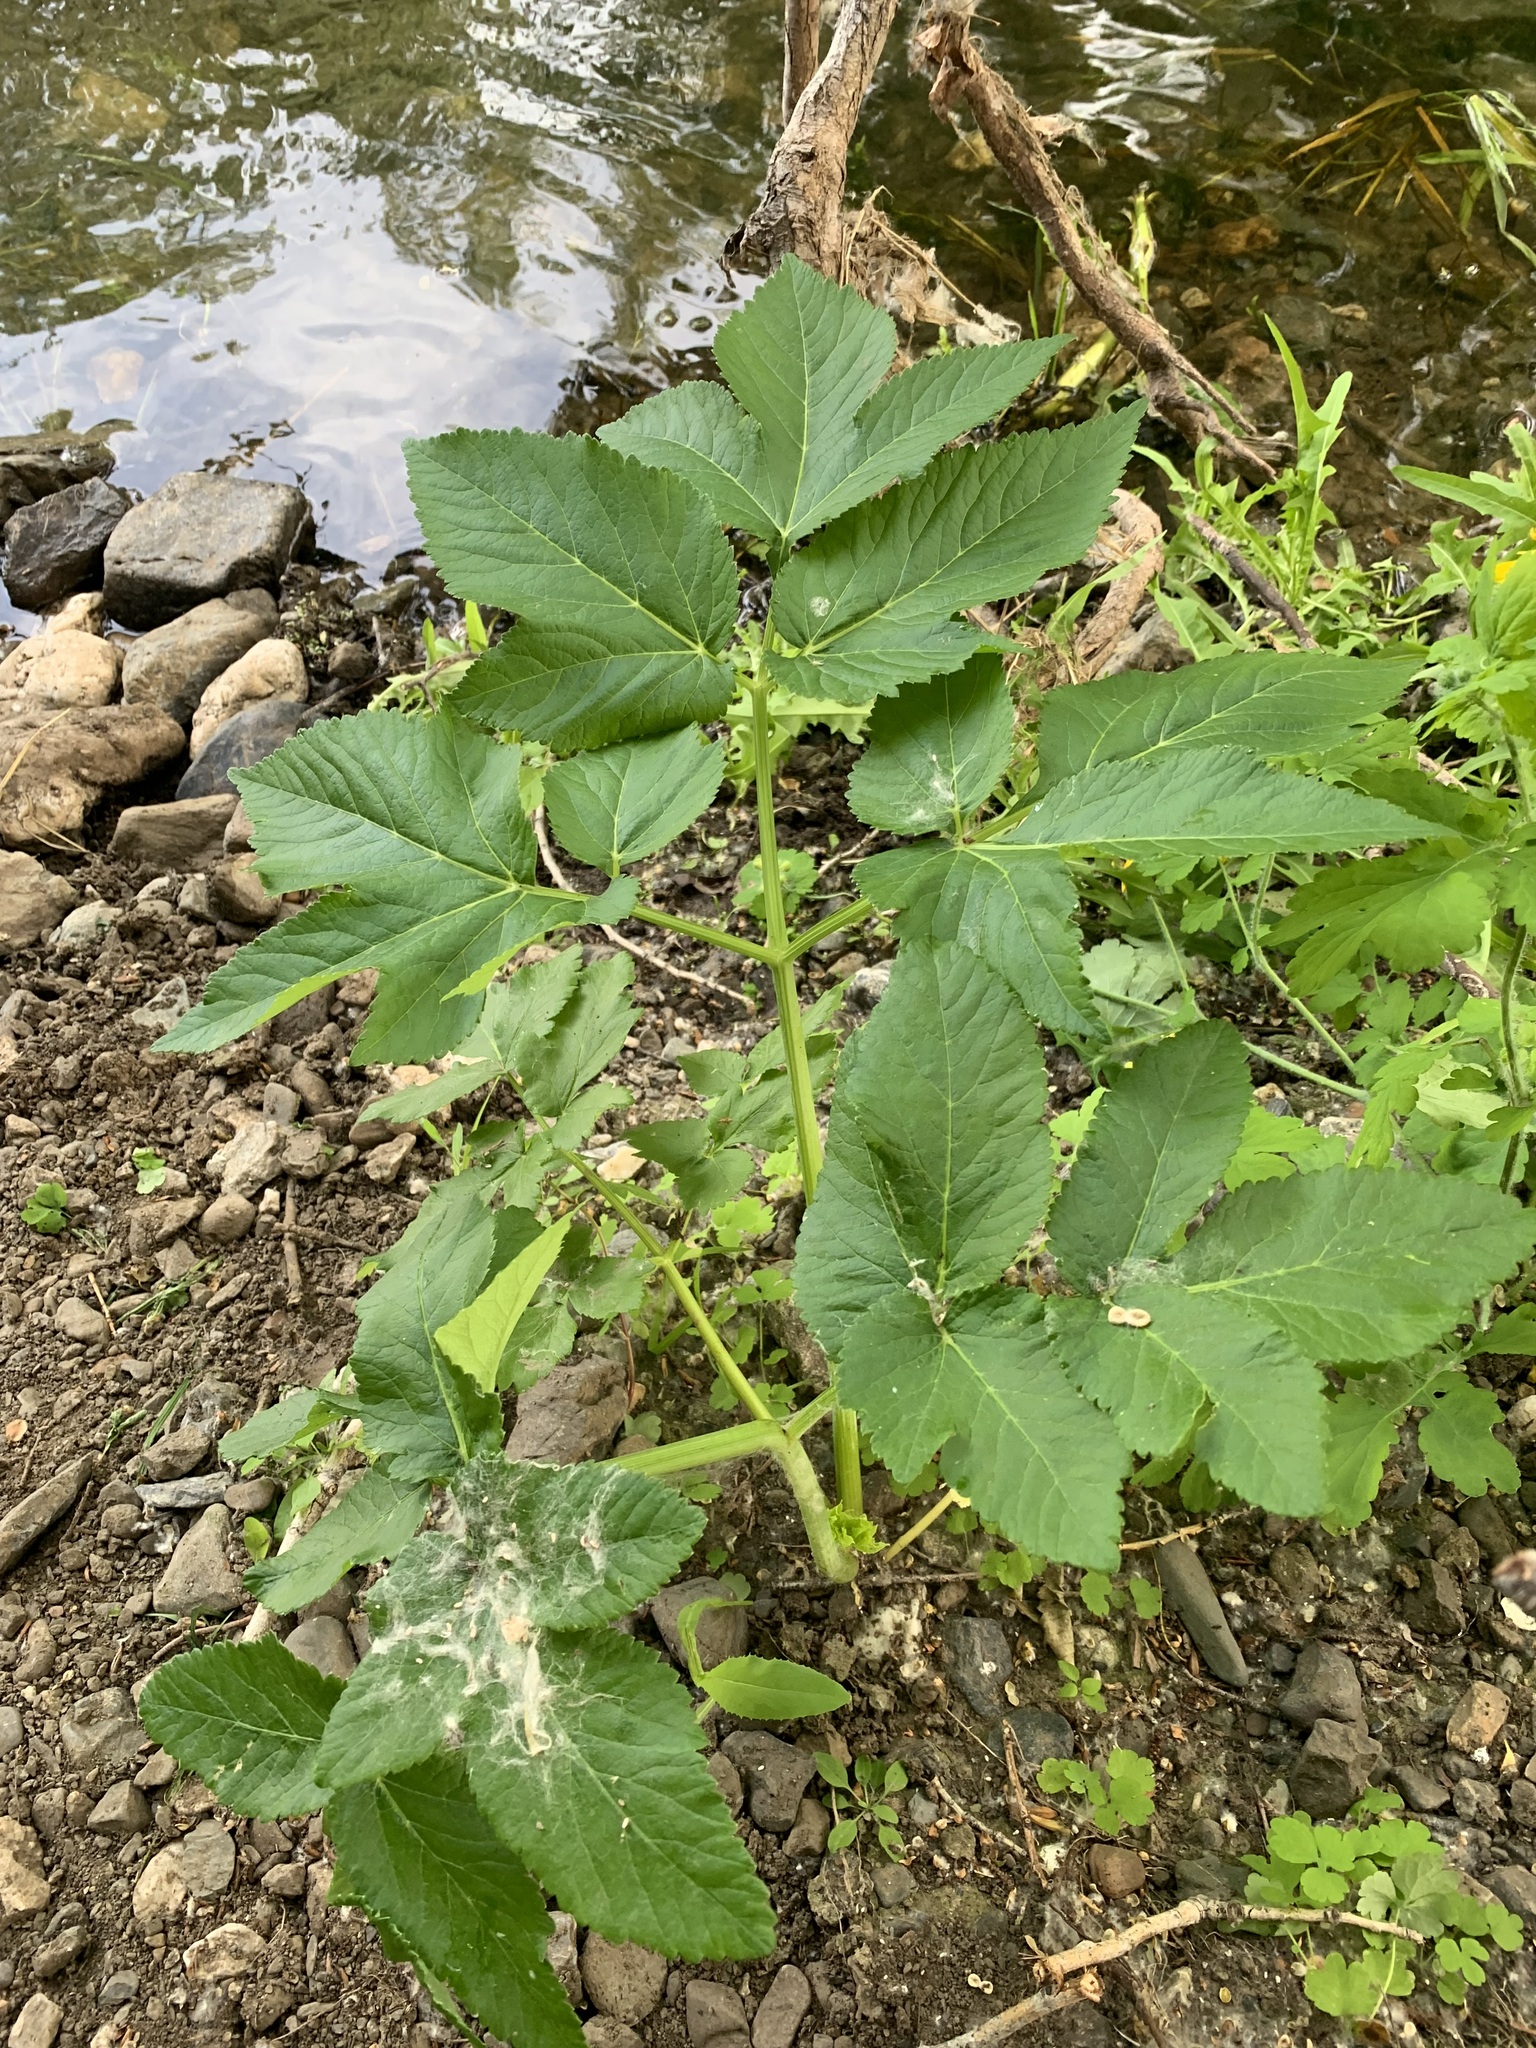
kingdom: Plantae
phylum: Tracheophyta
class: Magnoliopsida
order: Apiales
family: Apiaceae
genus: Angelica
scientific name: Angelica archangelica
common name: Garden angelica
